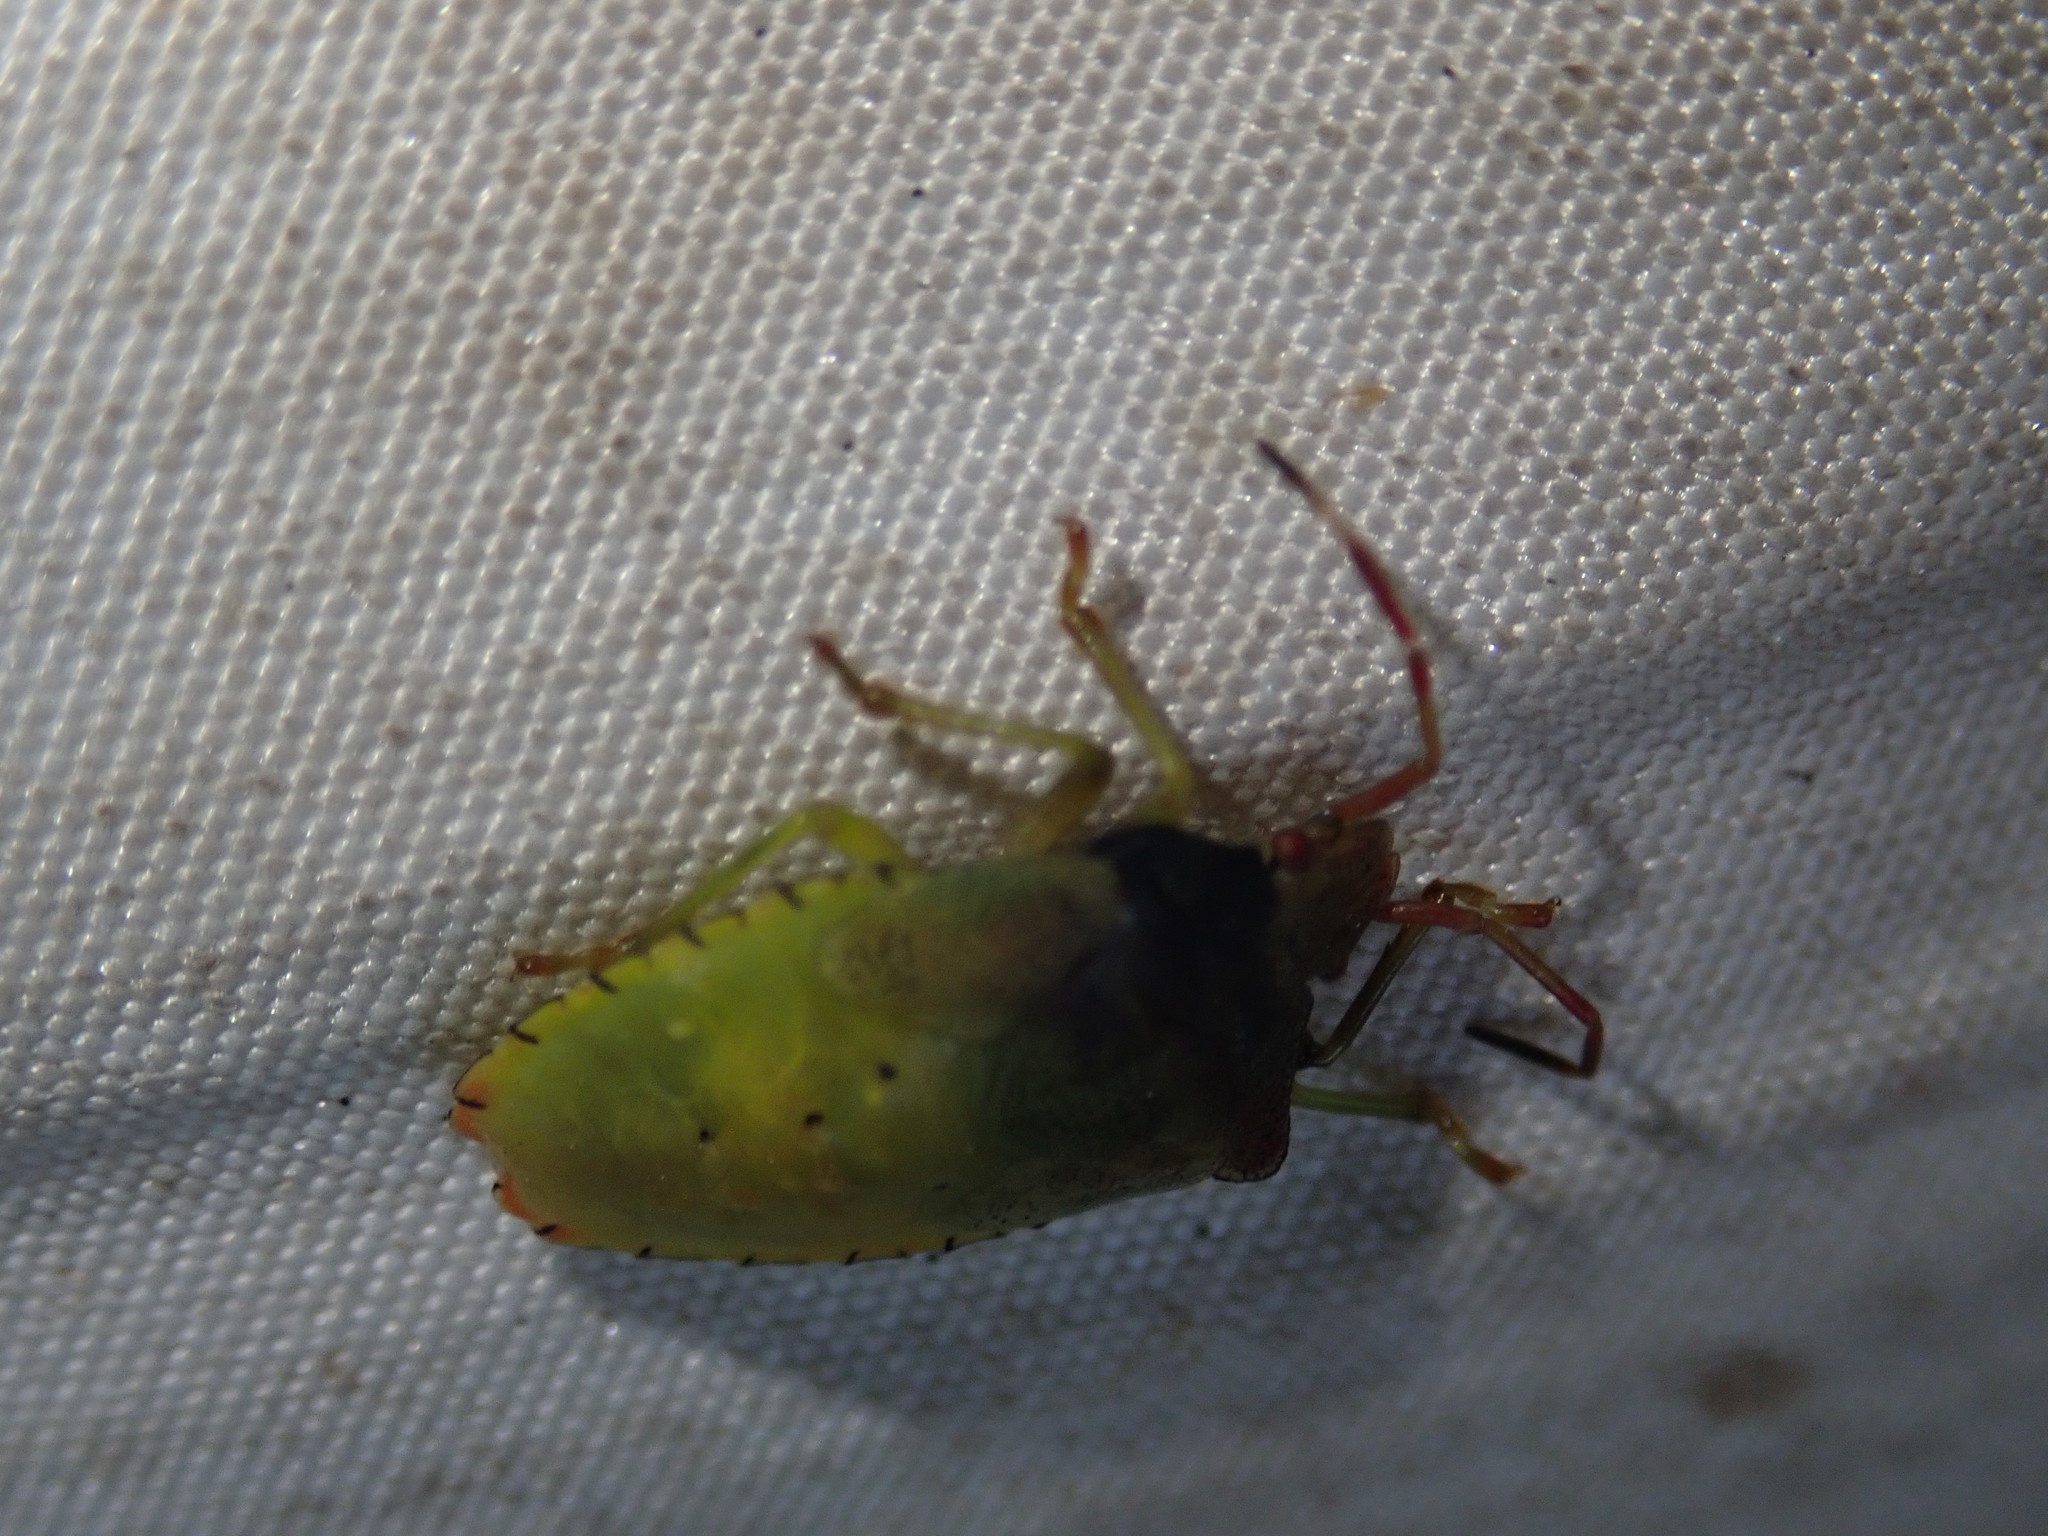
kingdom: Animalia
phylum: Arthropoda
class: Insecta
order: Hemiptera
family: Acanthosomatidae
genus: Acanthosoma
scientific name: Acanthosoma haemorrhoidale
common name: Hawthorn shieldbug
